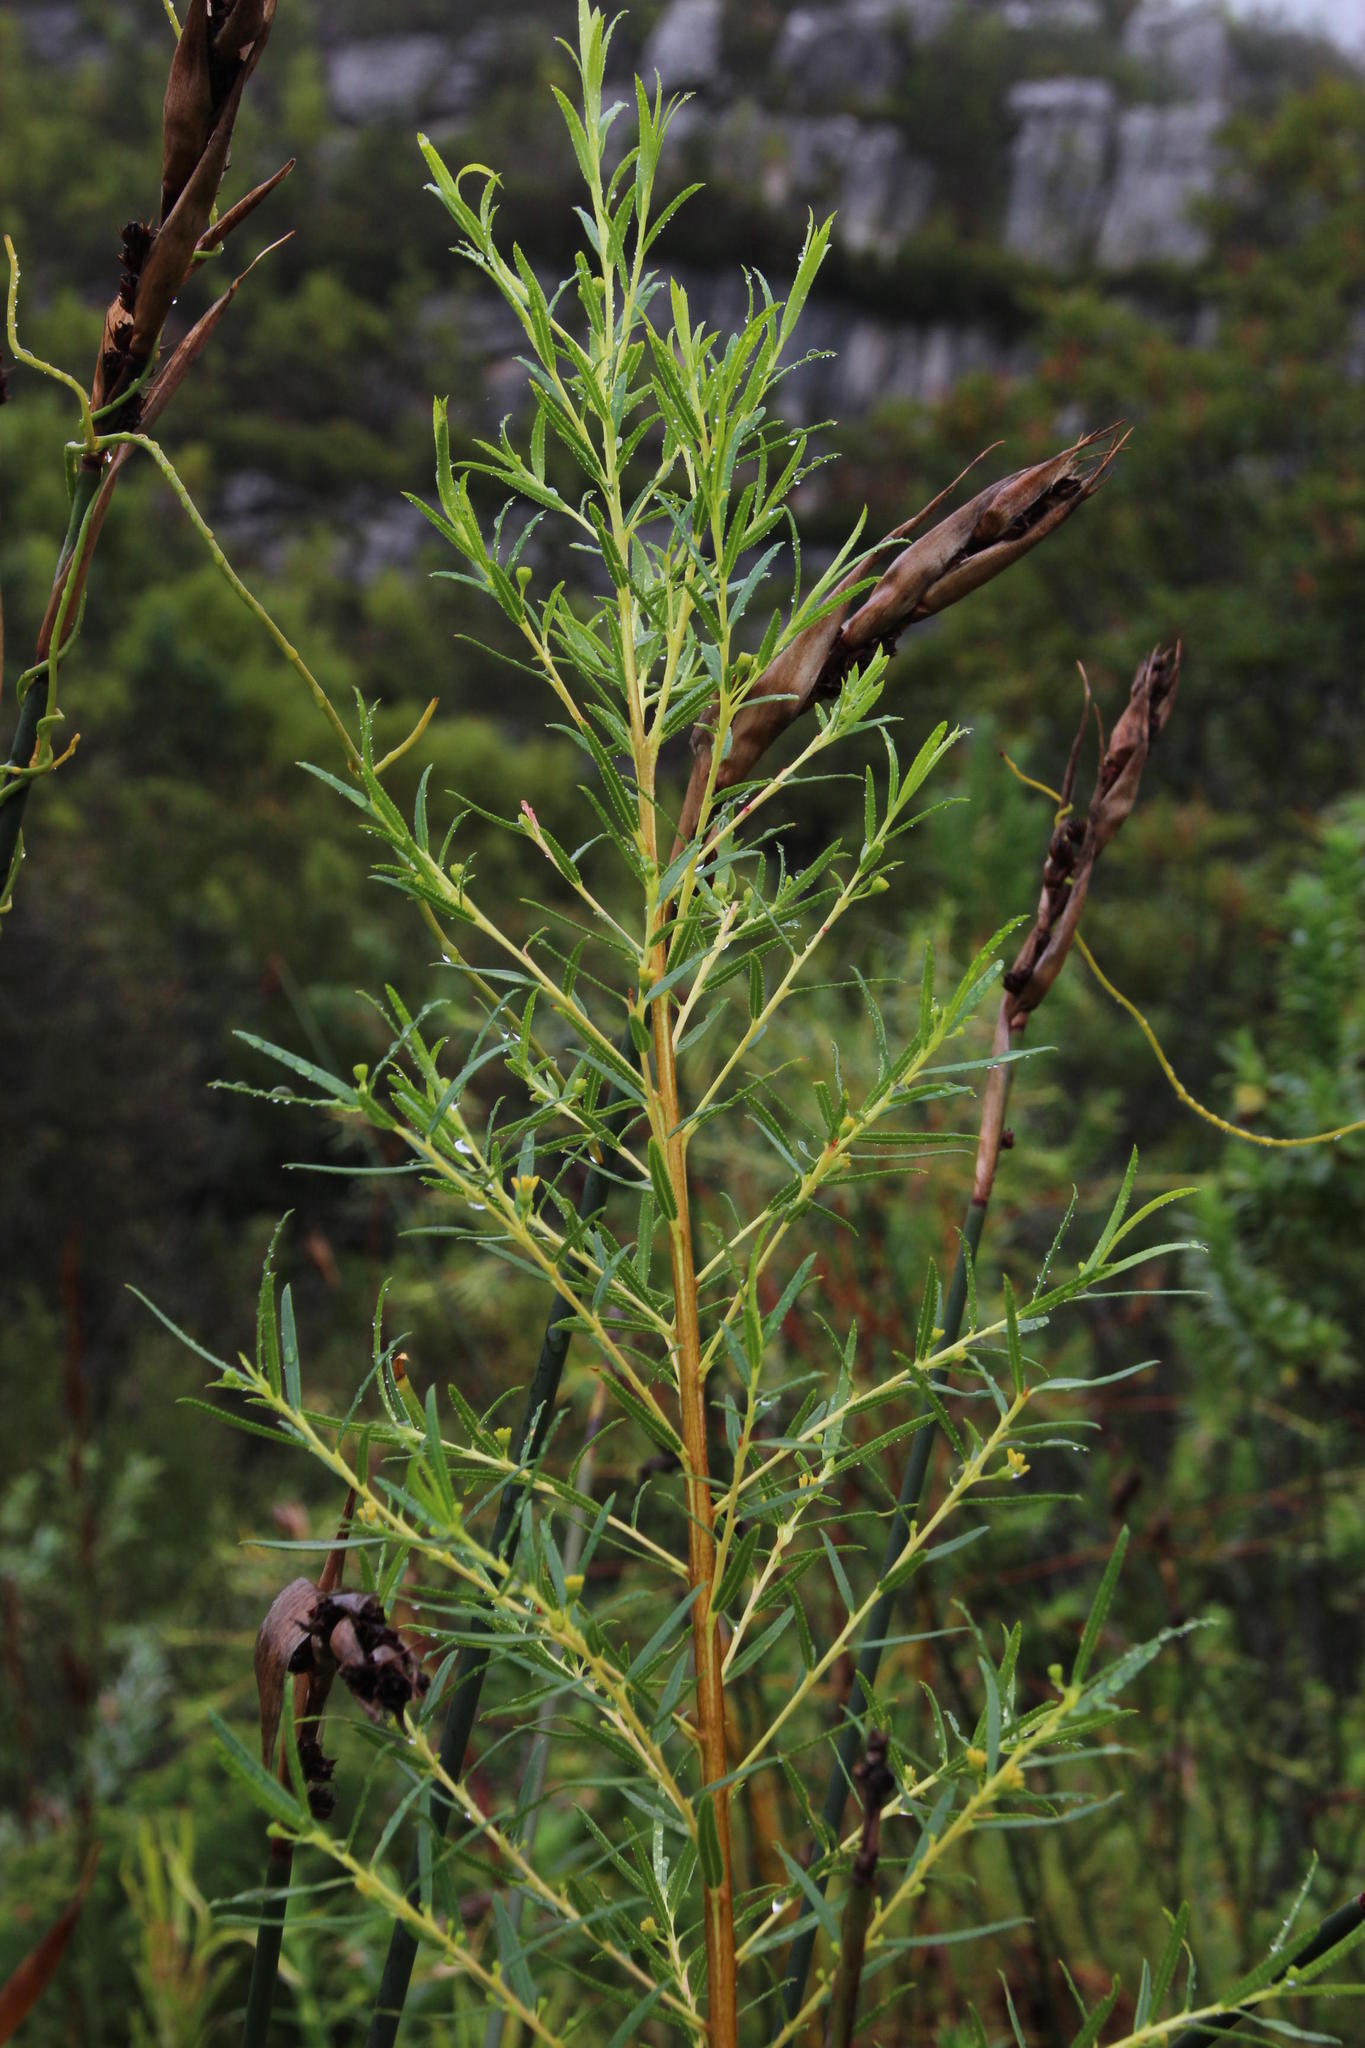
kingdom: Plantae
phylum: Tracheophyta
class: Magnoliopsida
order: Sapindales
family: Rutaceae
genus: Empleurum
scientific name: Empleurum unicapsulare
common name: False buchu
